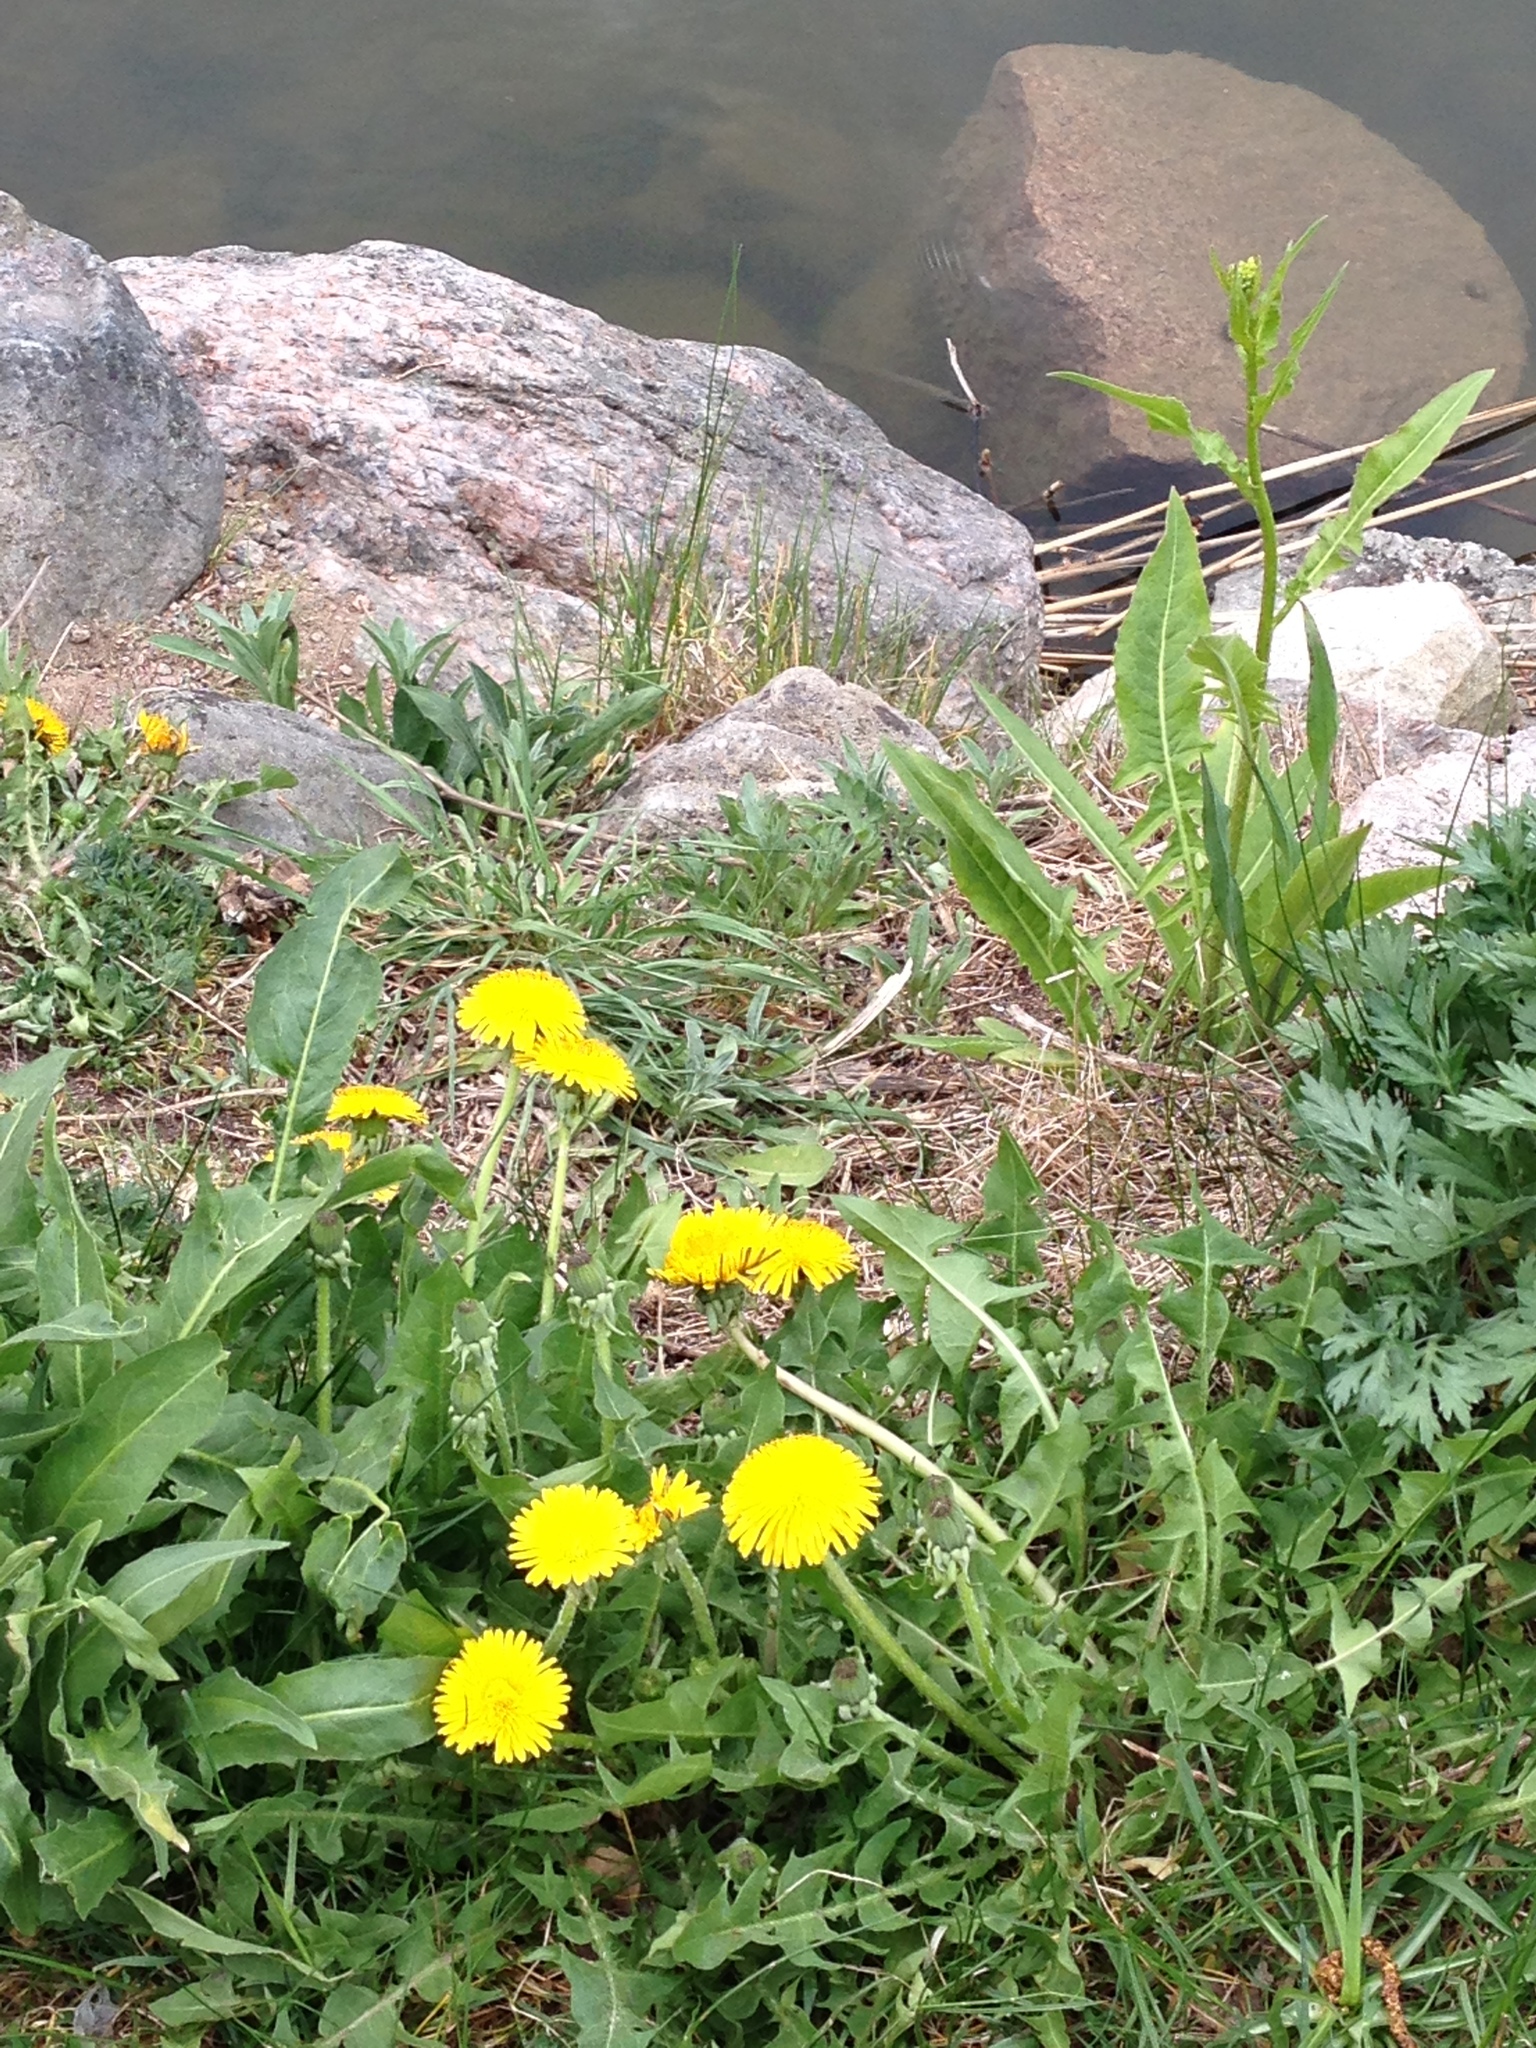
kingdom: Plantae
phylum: Tracheophyta
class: Magnoliopsida
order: Brassicales
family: Brassicaceae
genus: Bunias
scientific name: Bunias orientalis
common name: Warty-cabbage
